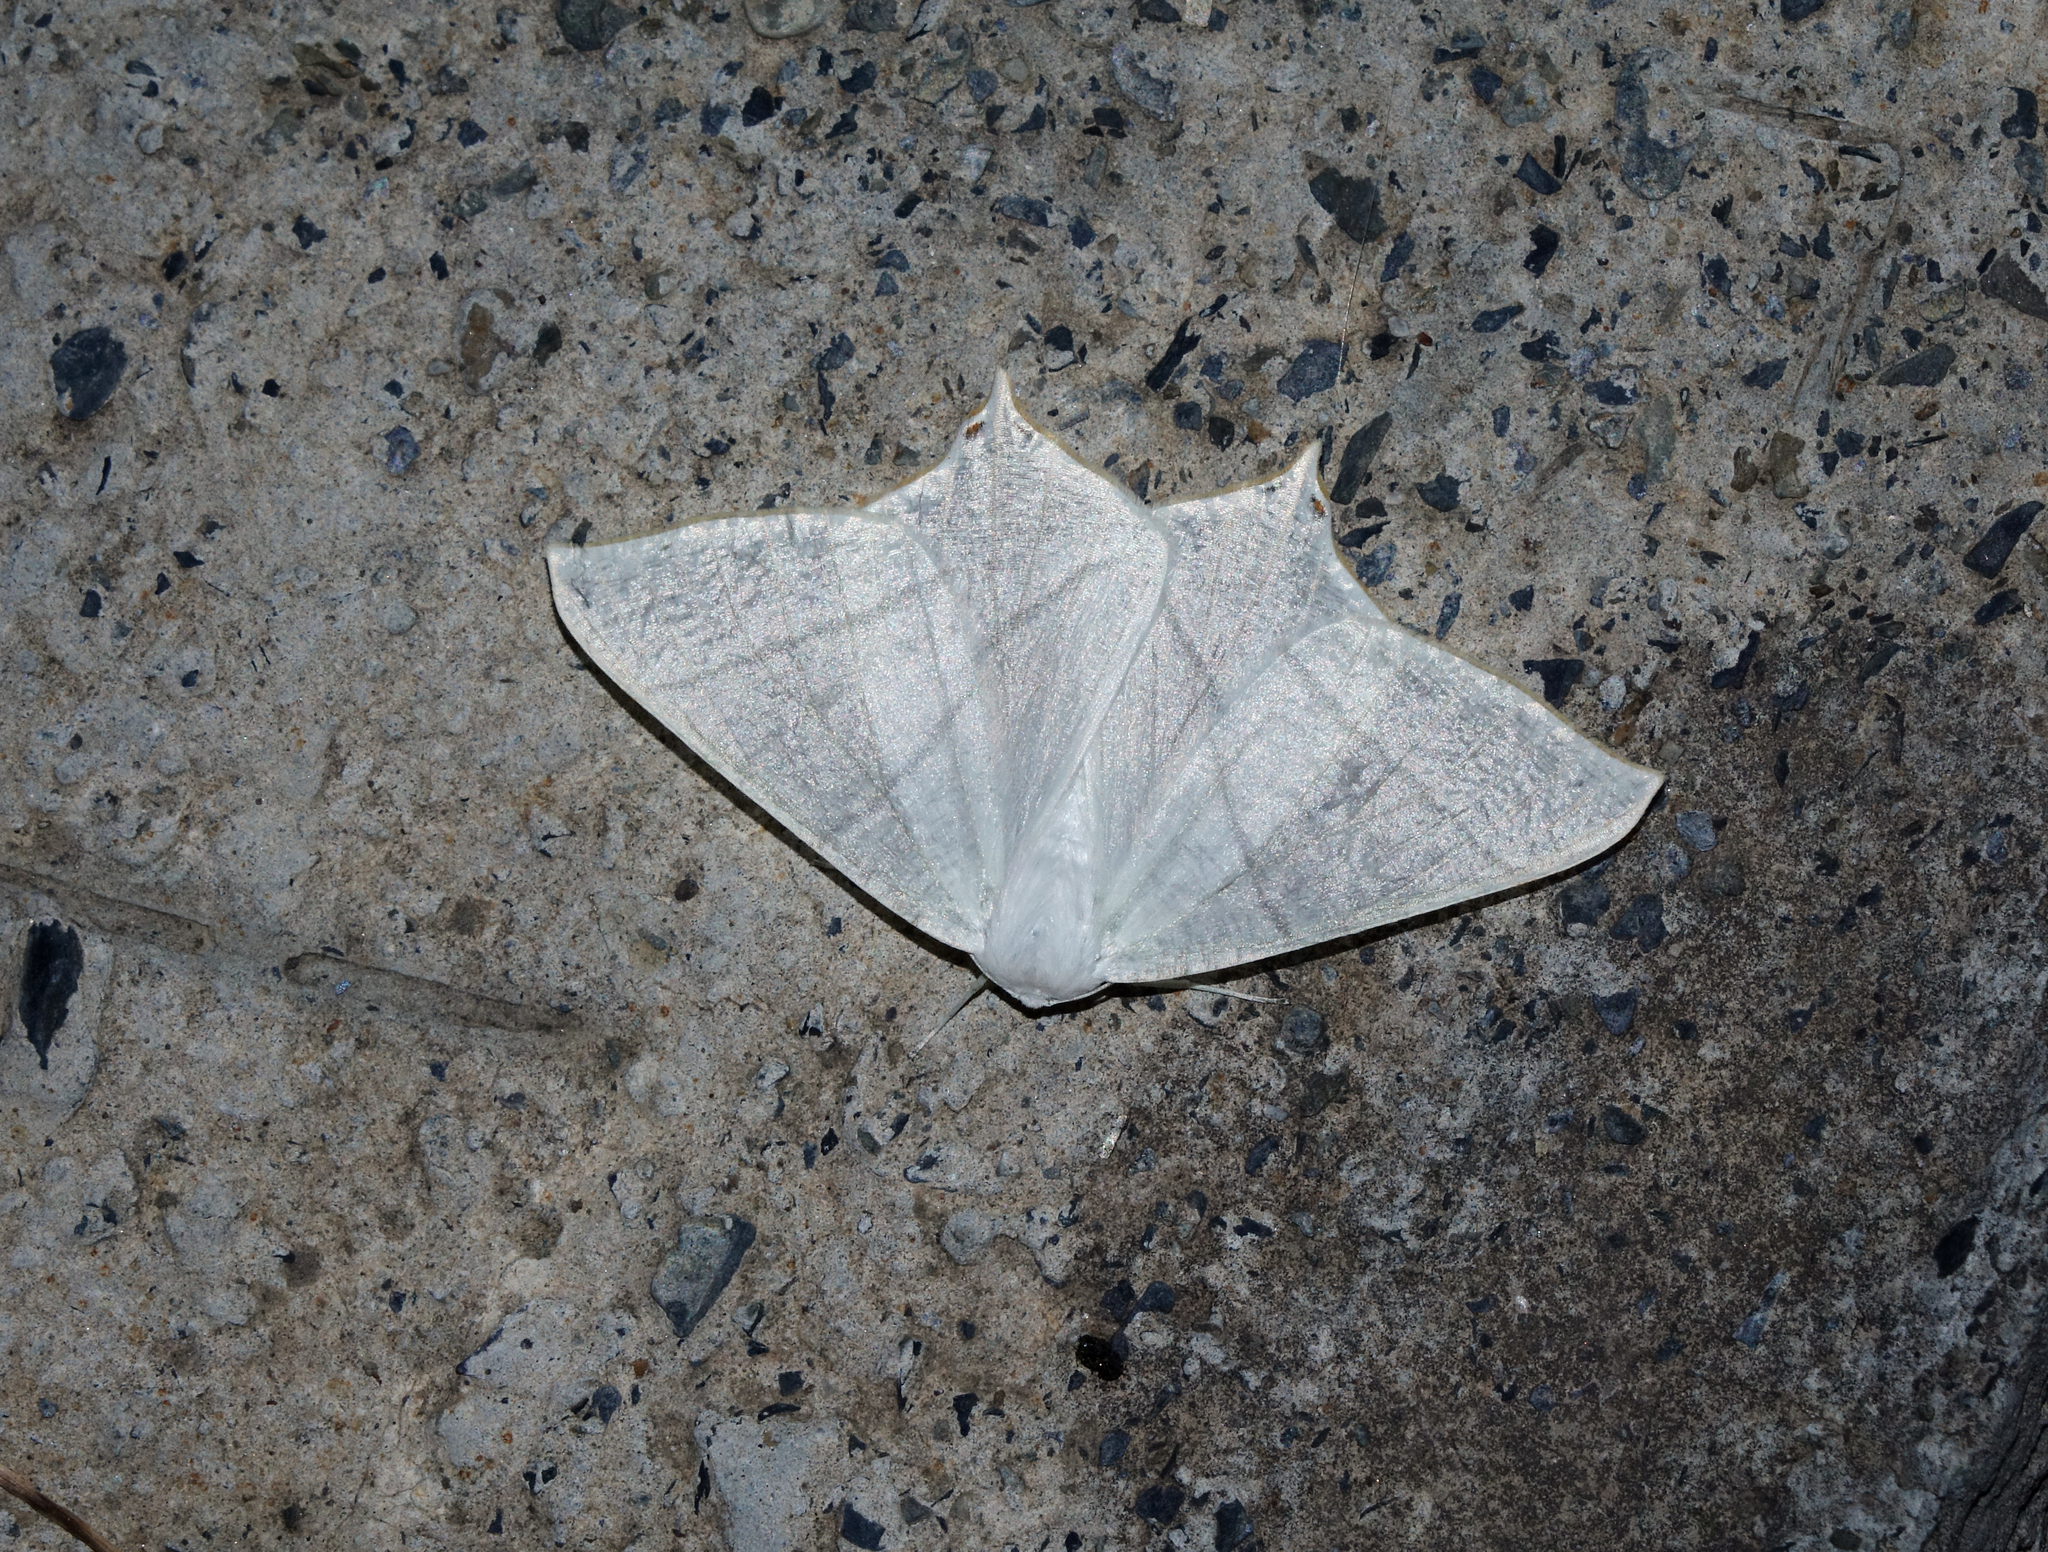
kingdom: Animalia
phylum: Arthropoda
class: Insecta
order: Lepidoptera
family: Geometridae
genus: Ourapteryx
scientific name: Ourapteryx
